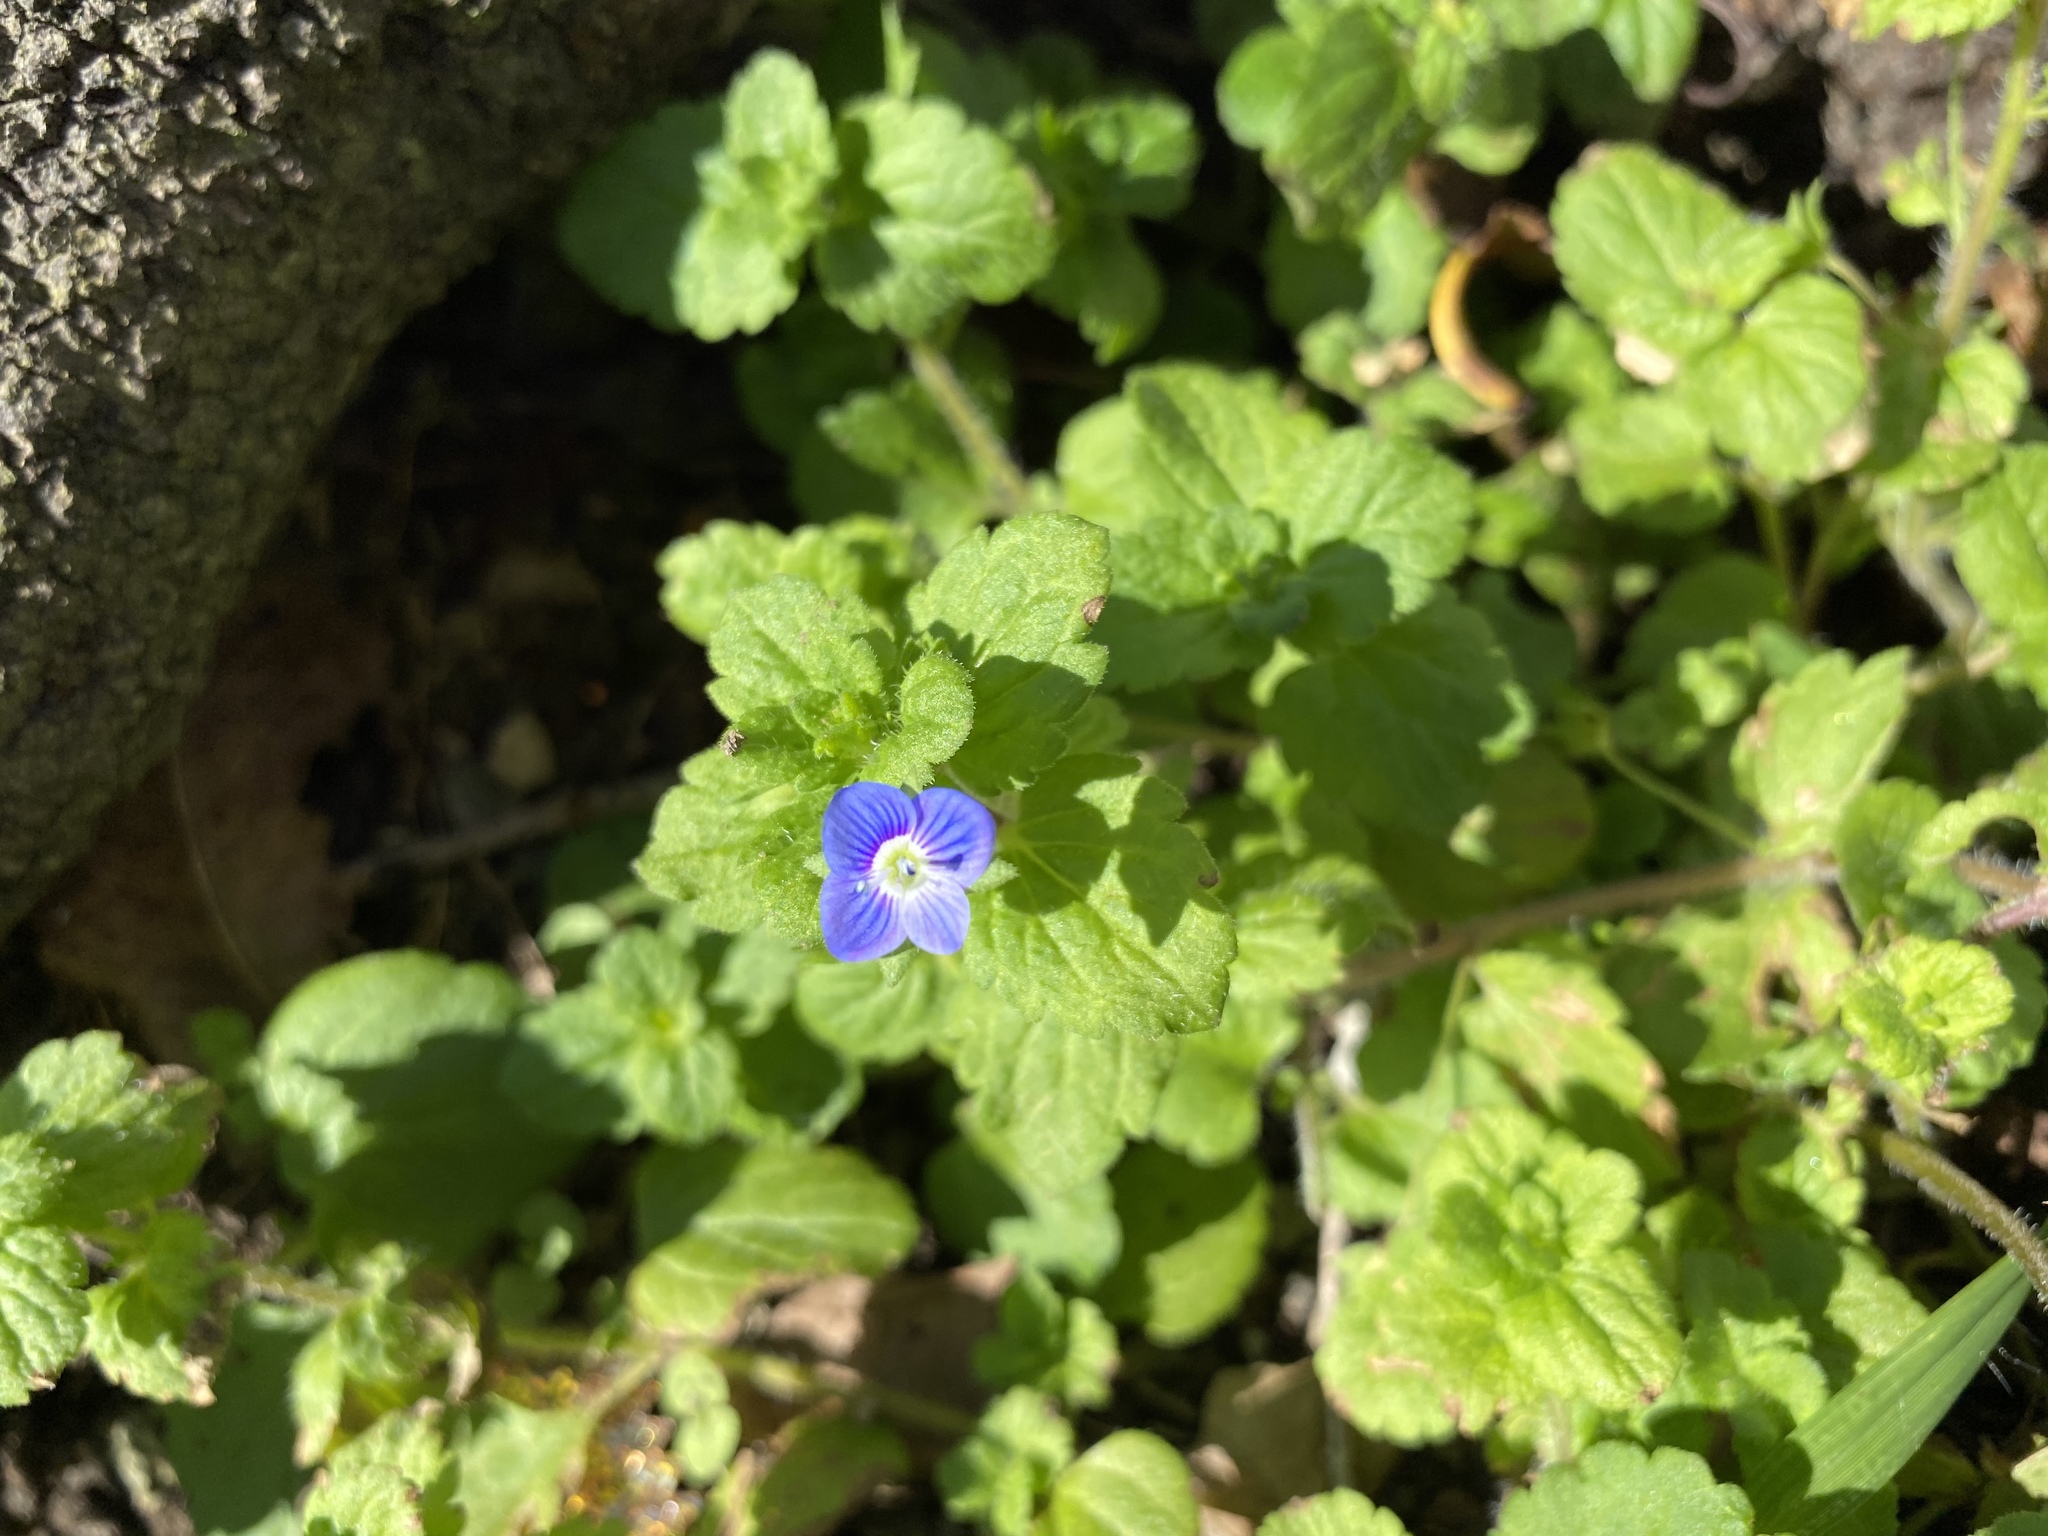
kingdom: Plantae
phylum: Tracheophyta
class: Magnoliopsida
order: Lamiales
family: Plantaginaceae
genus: Veronica
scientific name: Veronica persica
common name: Common field-speedwell
